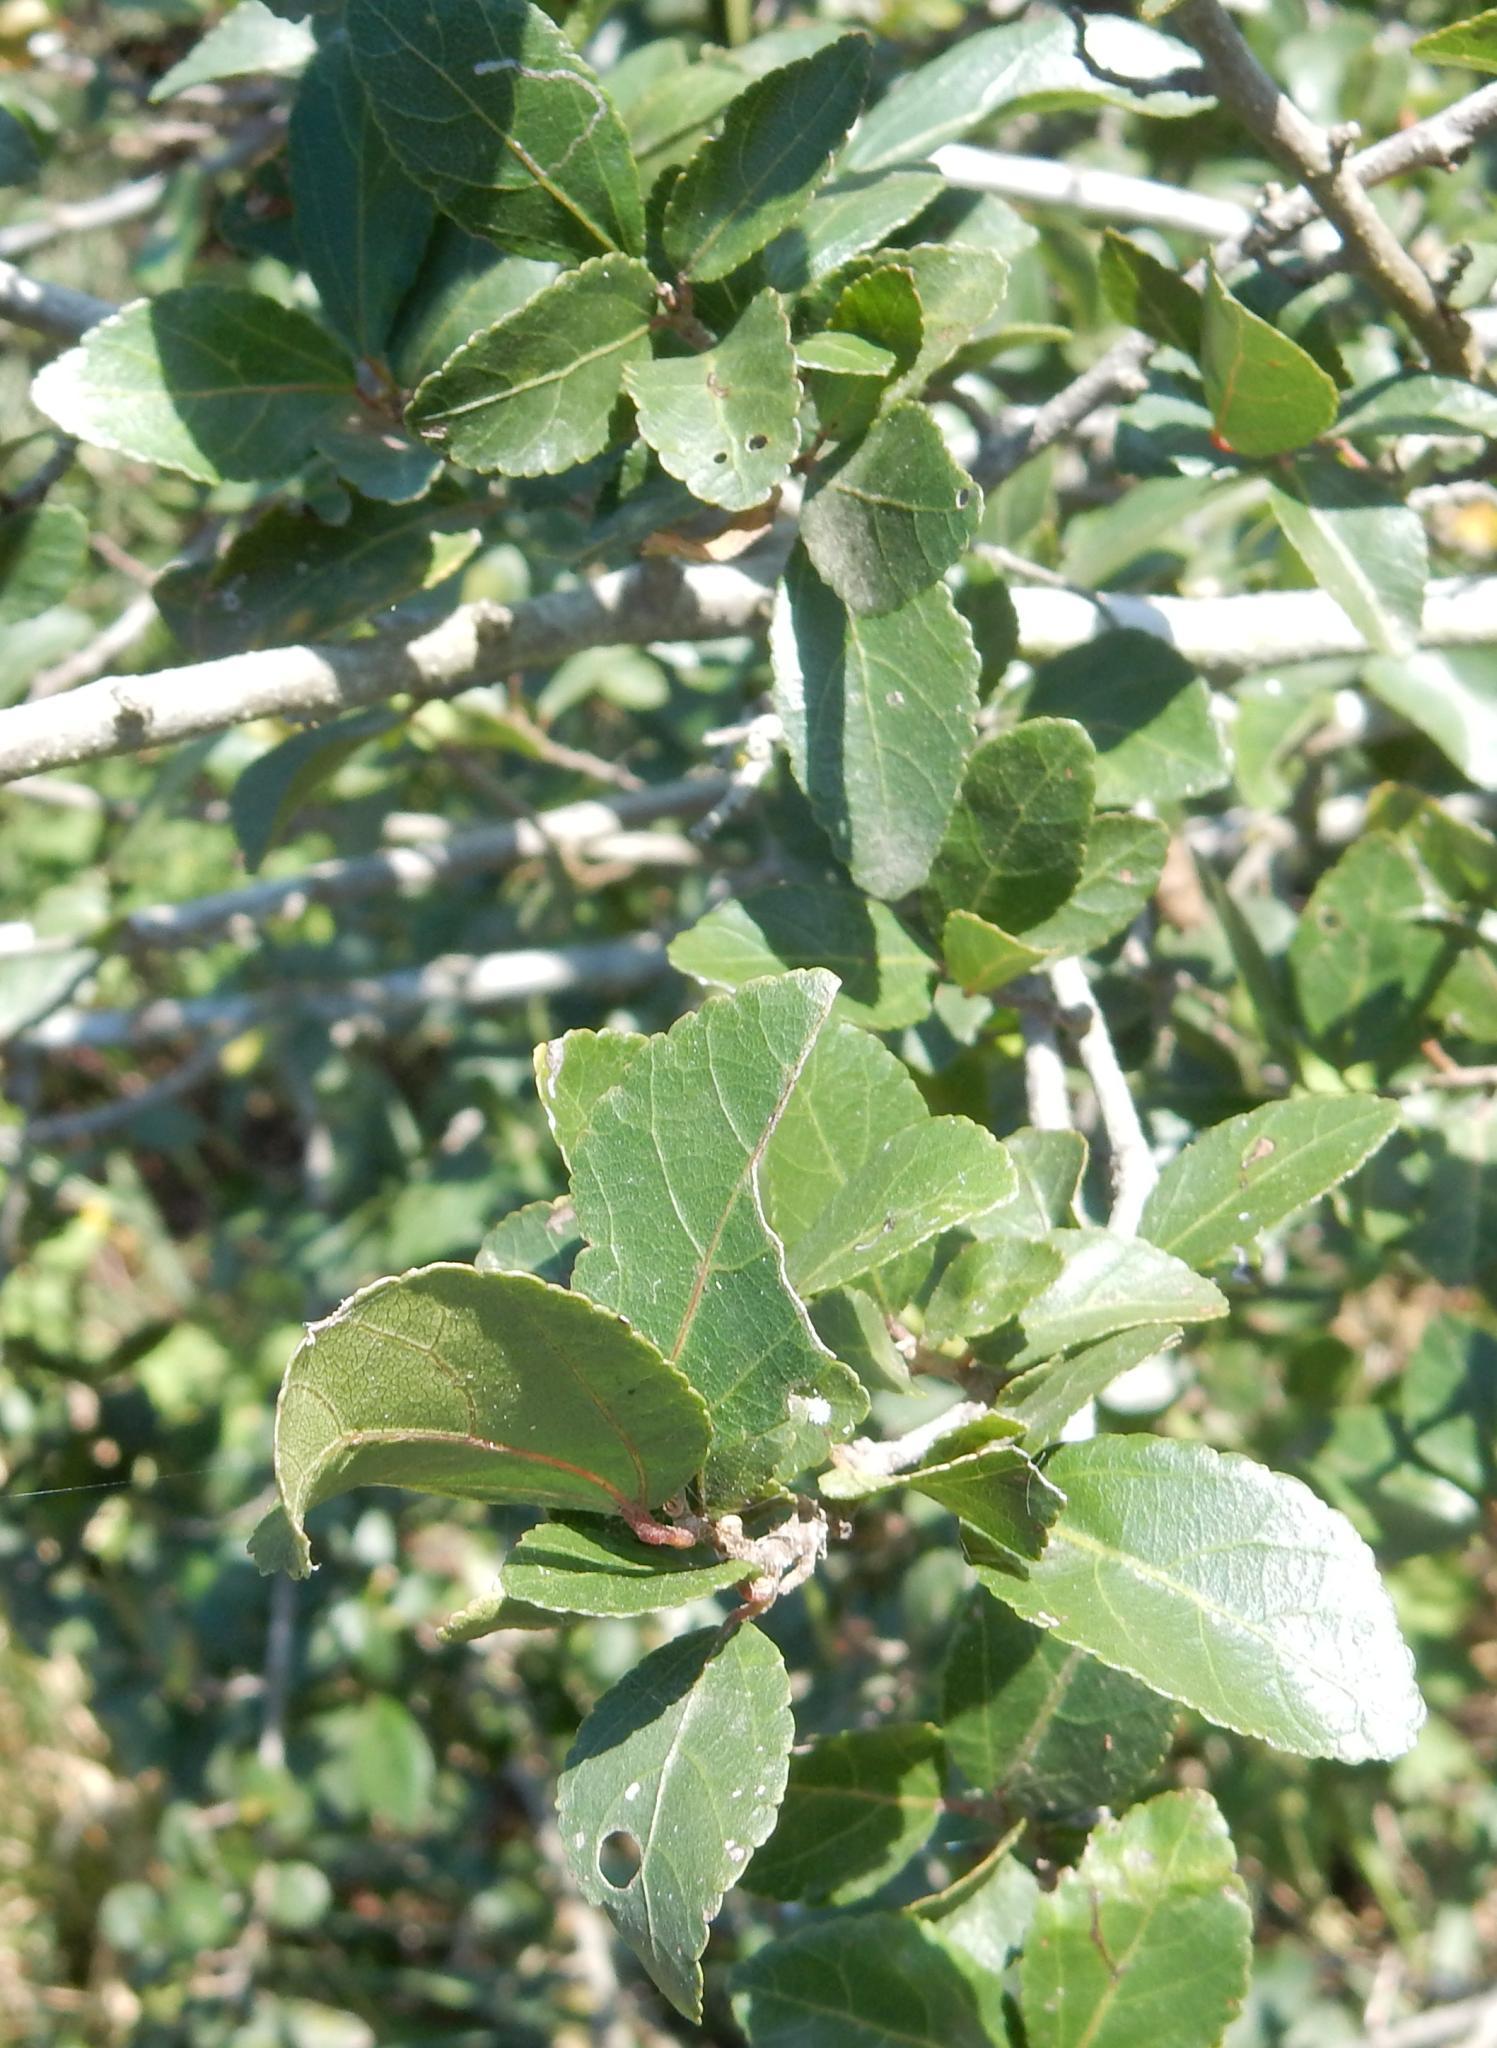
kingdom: Plantae
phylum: Tracheophyta
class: Magnoliopsida
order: Malvales
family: Malvaceae
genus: Grewia
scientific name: Grewia occidentalis
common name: Crossberry
